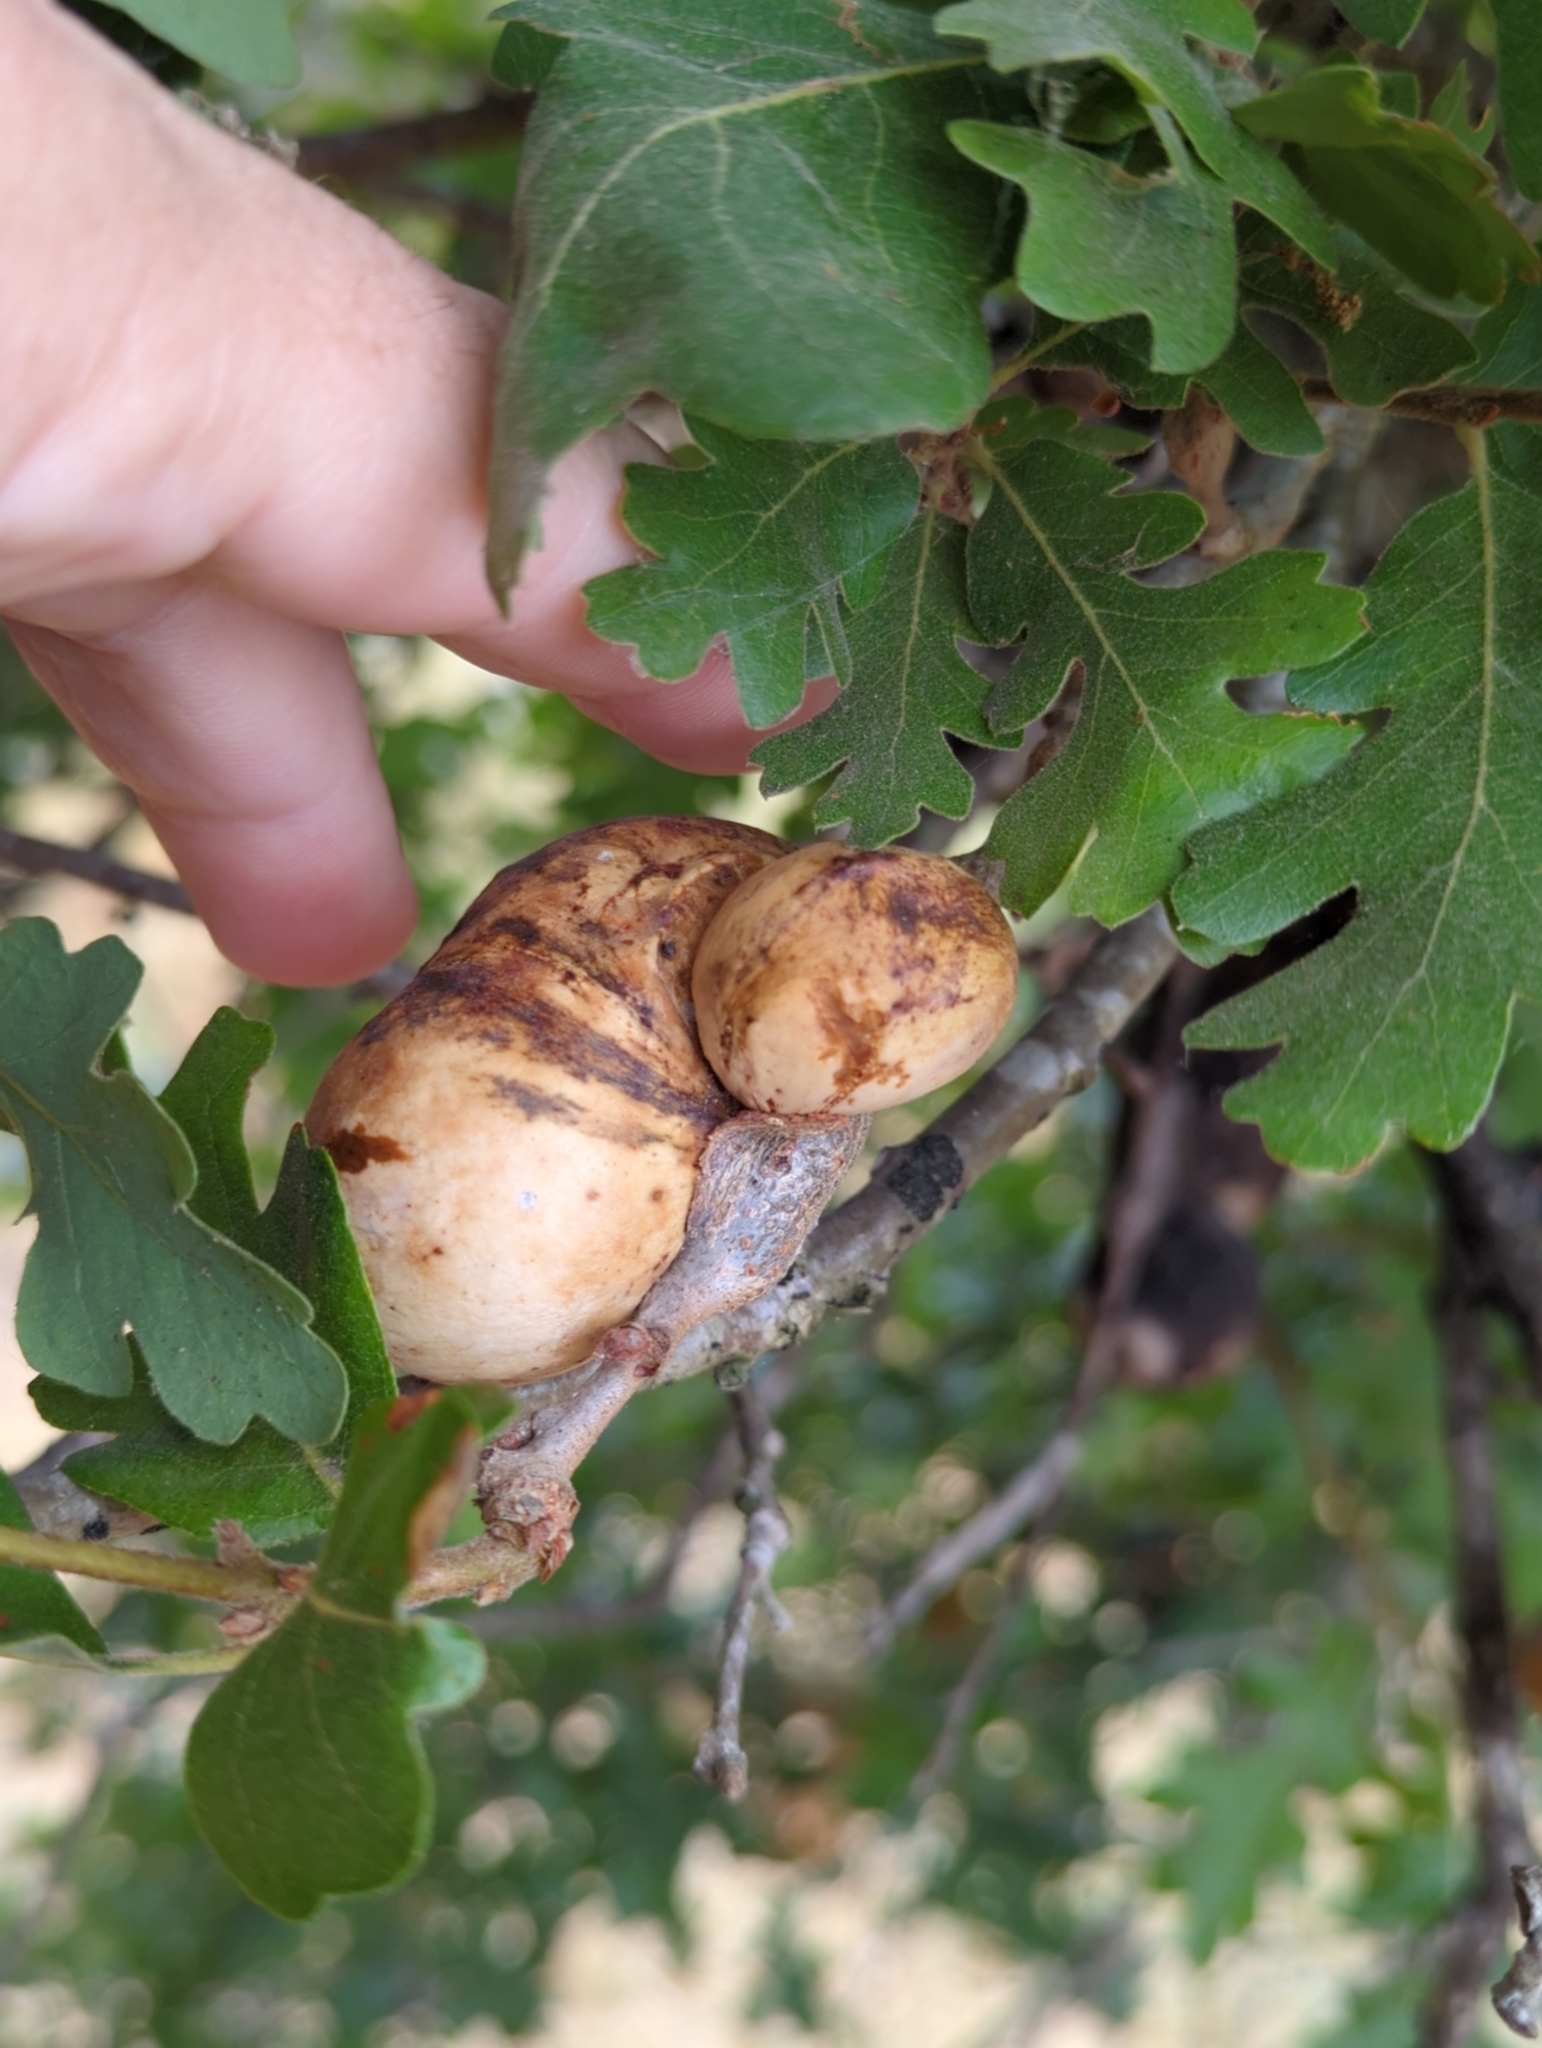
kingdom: Animalia
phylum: Arthropoda
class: Insecta
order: Hymenoptera
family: Cynipidae
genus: Andricus
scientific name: Andricus quercuscalifornicus
